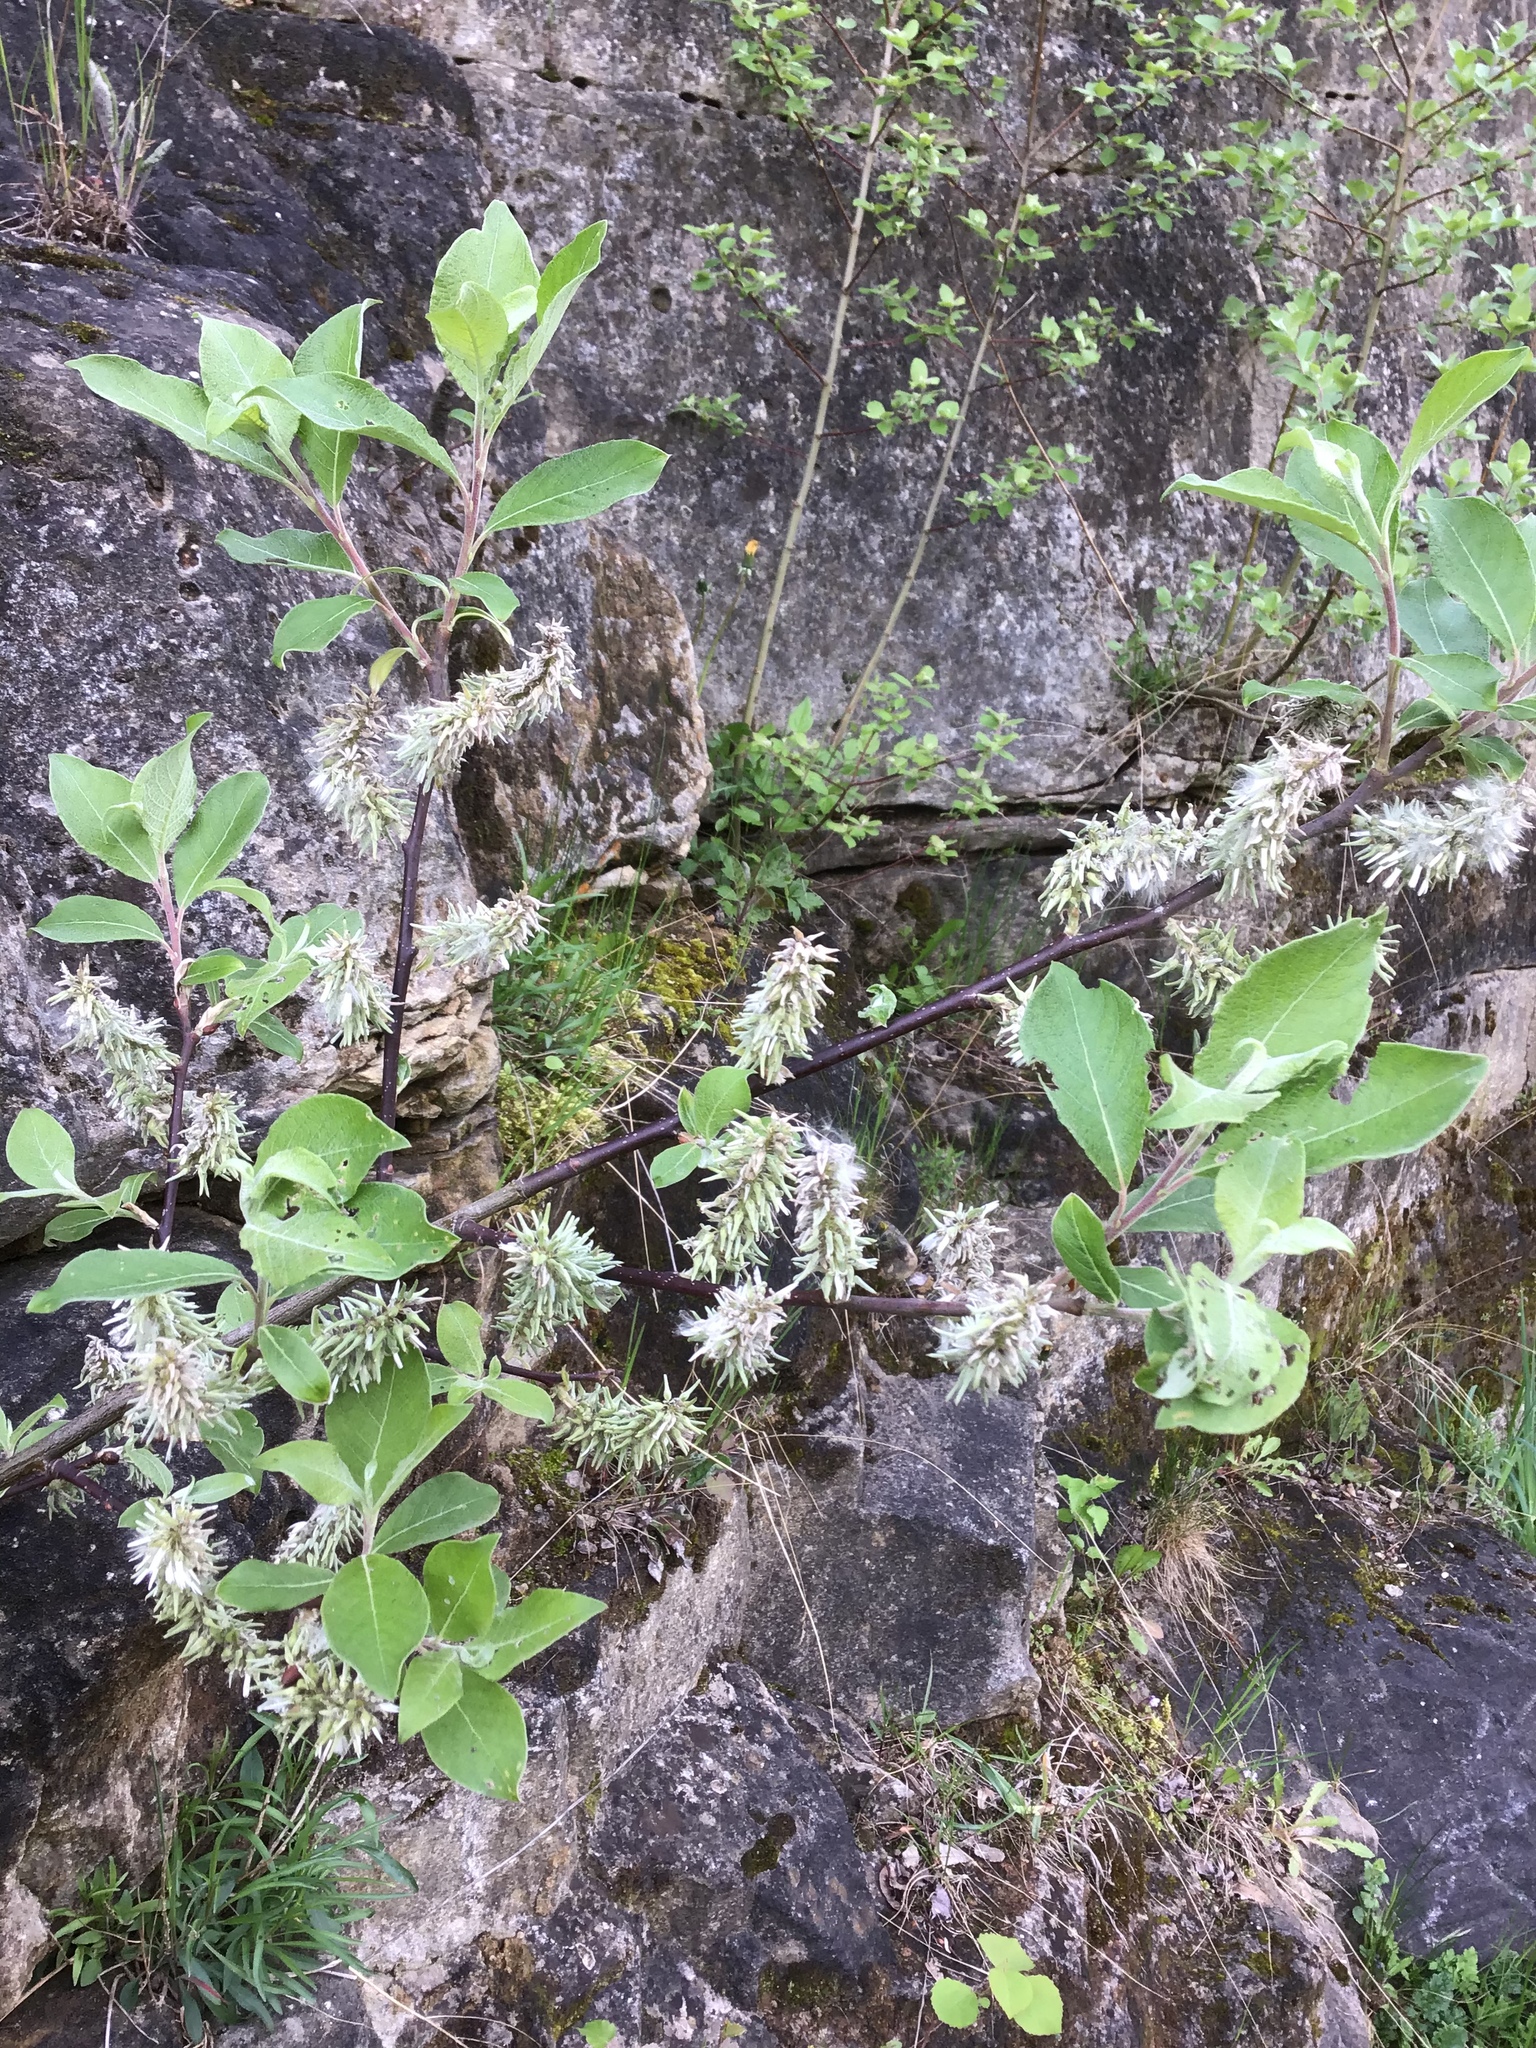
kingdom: Plantae
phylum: Tracheophyta
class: Magnoliopsida
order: Malpighiales
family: Salicaceae
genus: Salix
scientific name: Salix caprea
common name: Goat willow
